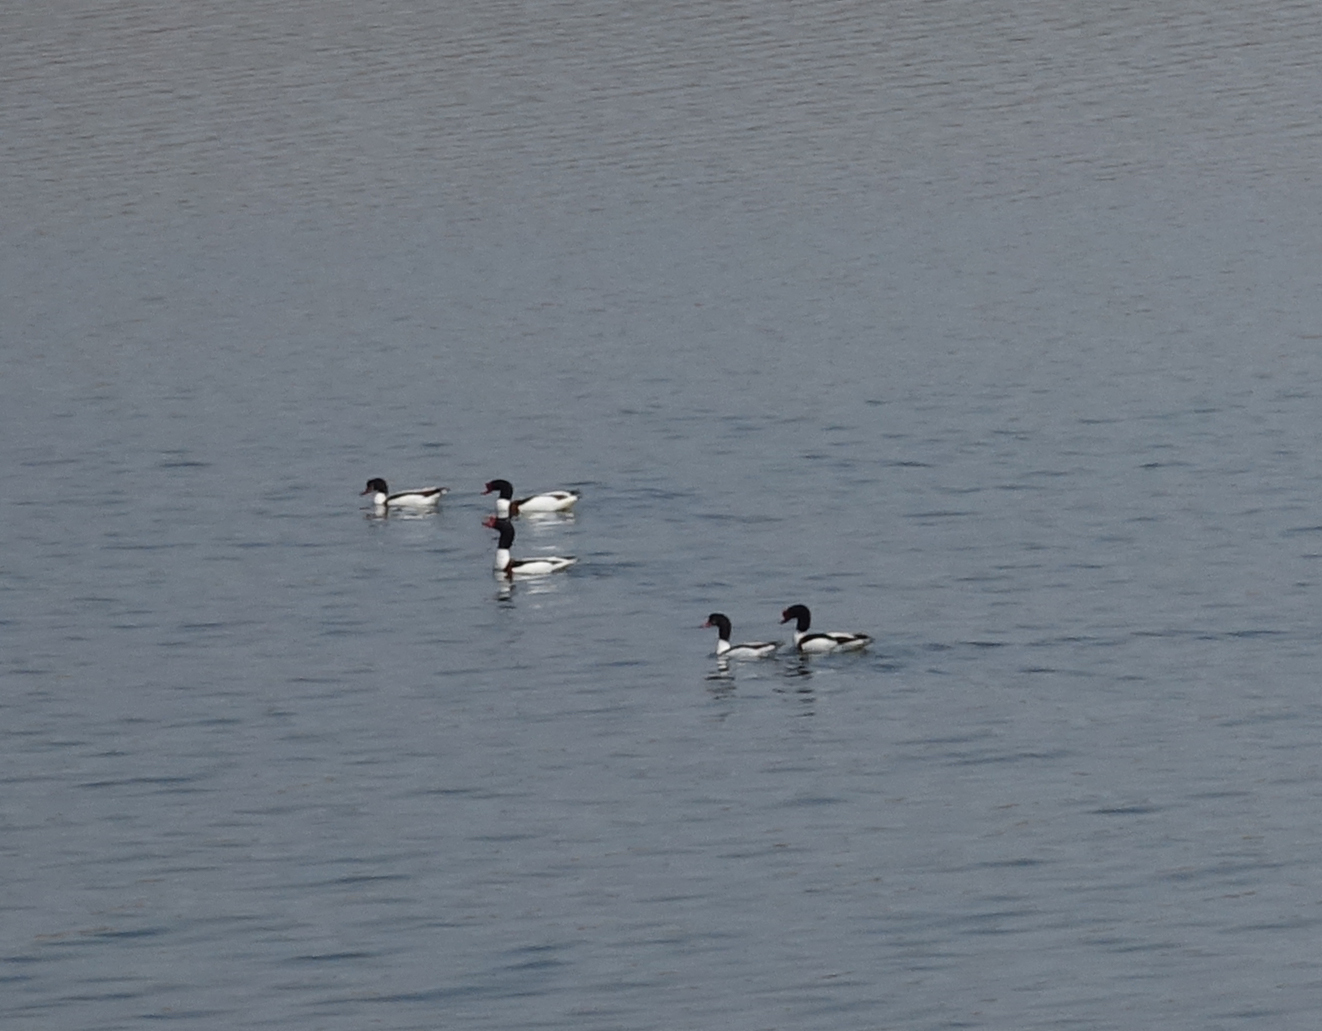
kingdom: Animalia
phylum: Chordata
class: Aves
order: Anseriformes
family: Anatidae
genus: Tadorna
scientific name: Tadorna tadorna
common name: Common shelduck
